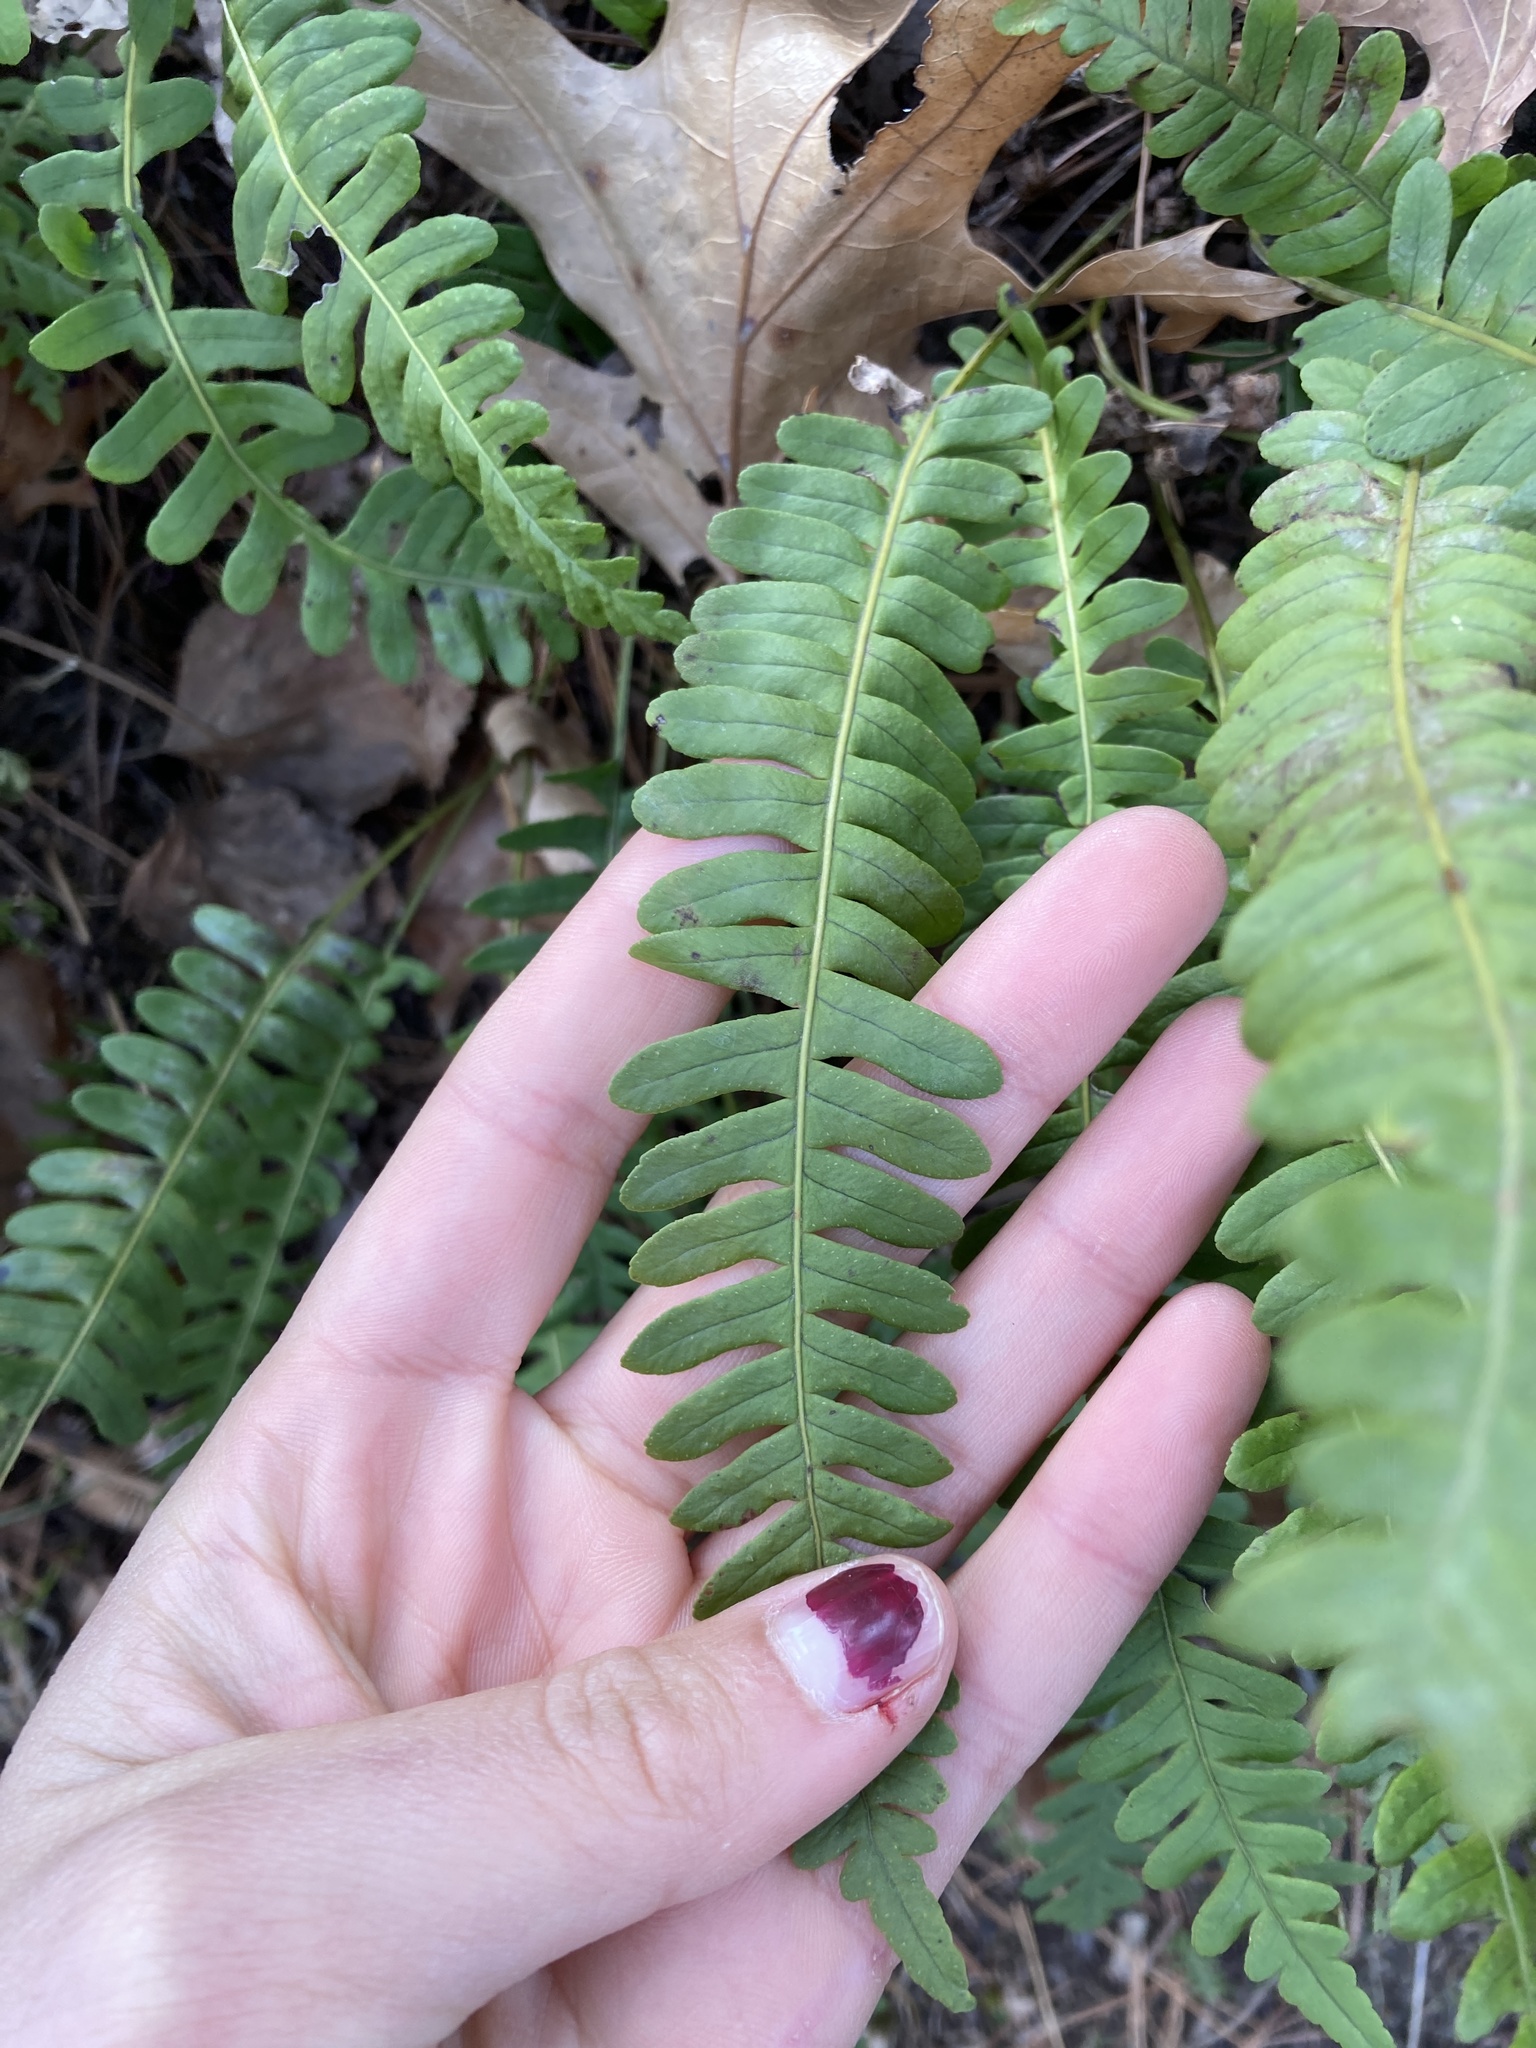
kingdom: Plantae
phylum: Tracheophyta
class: Polypodiopsida
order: Polypodiales
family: Polypodiaceae
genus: Polypodium
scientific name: Polypodium virginianum
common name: American wall fern
